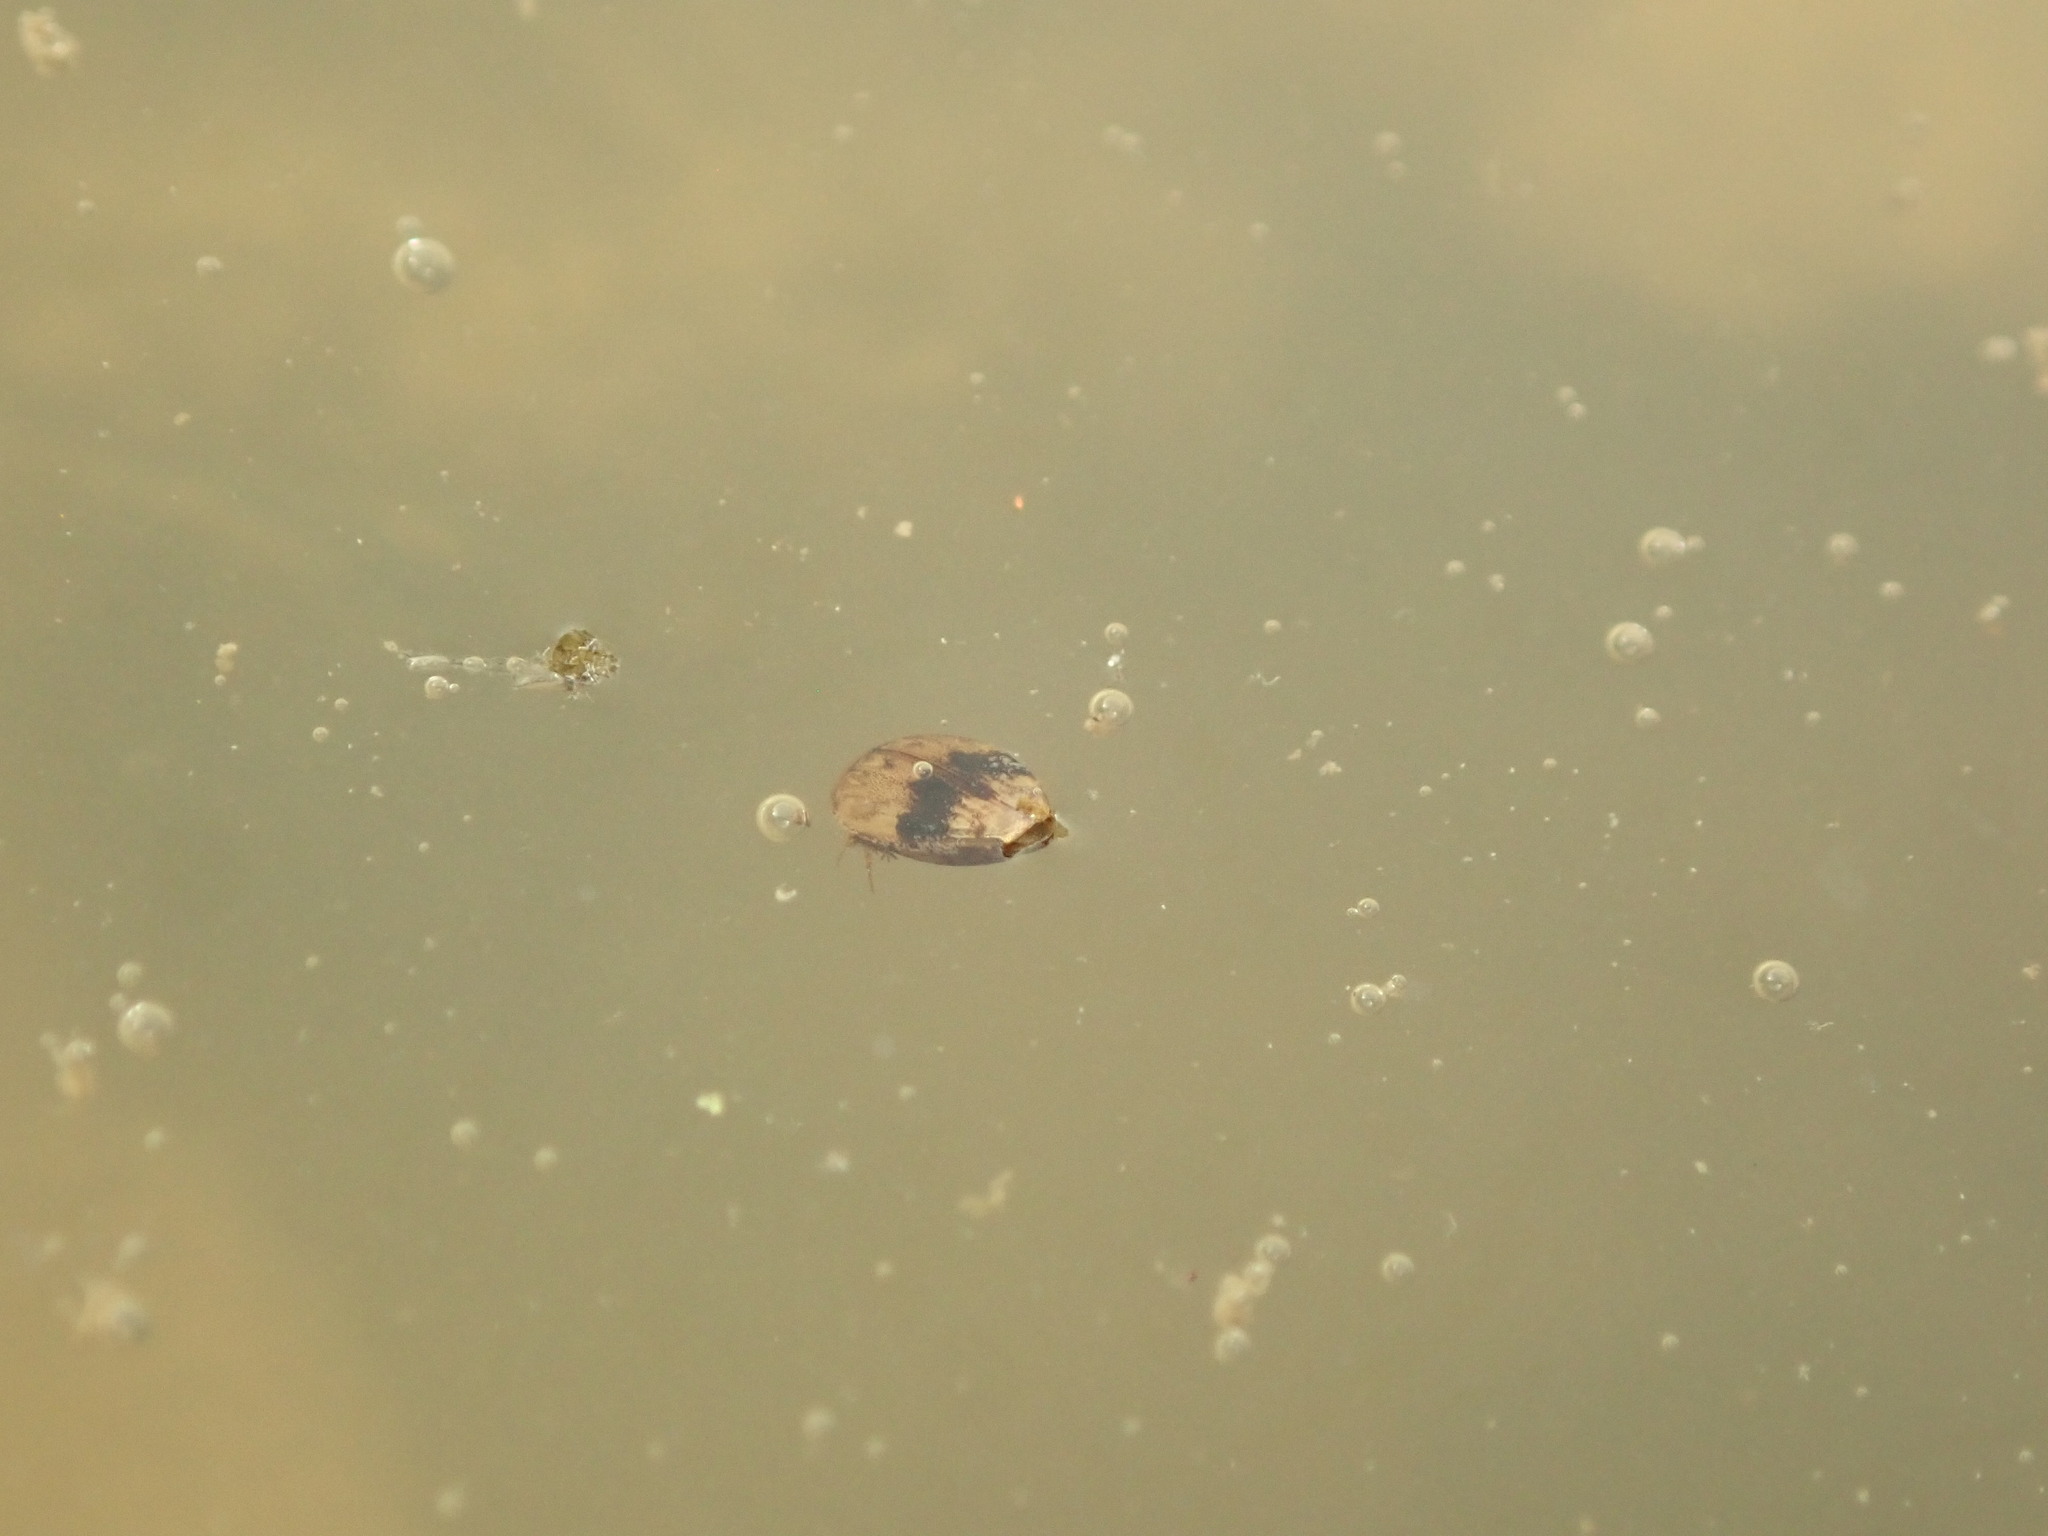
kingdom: Animalia
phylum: Arthropoda
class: Insecta
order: Coleoptera
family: Dytiscidae
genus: Laccophilus
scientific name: Laccophilus fasciatus
